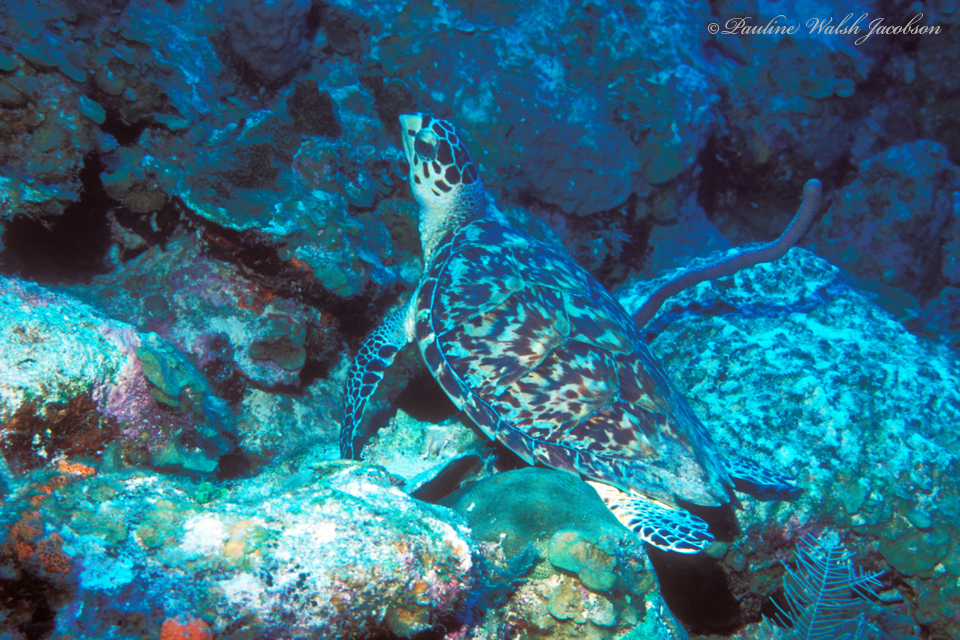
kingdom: Animalia
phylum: Chordata
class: Testudines
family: Cheloniidae
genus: Eretmochelys
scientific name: Eretmochelys imbricata
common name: Hawksbill turtle
